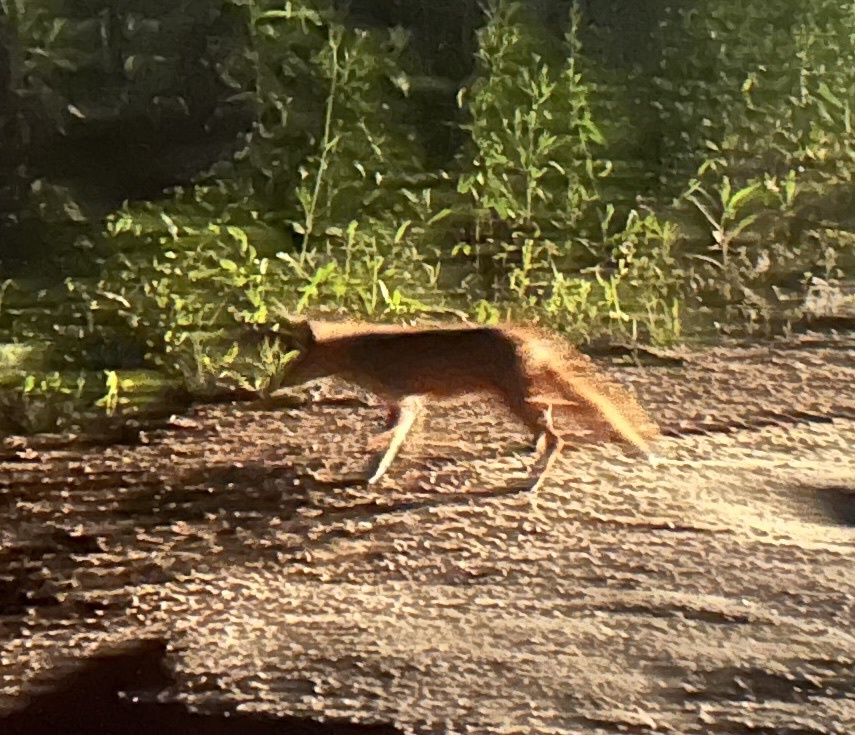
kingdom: Animalia
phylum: Chordata
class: Mammalia
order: Carnivora
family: Canidae
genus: Vulpes
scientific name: Vulpes vulpes
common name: Red fox
